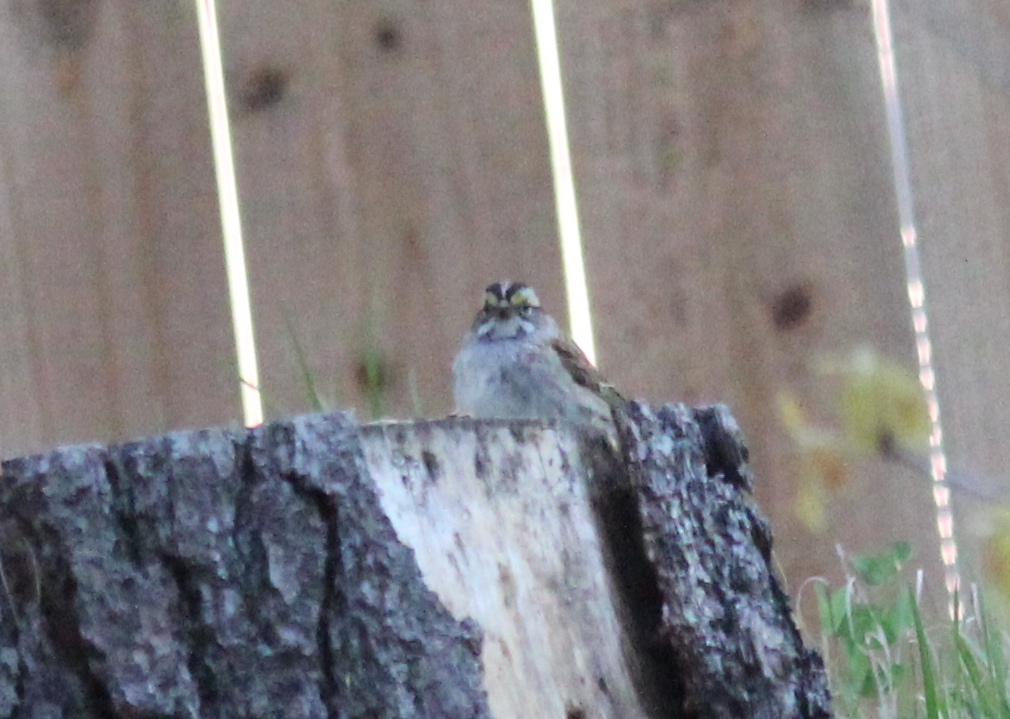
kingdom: Animalia
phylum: Chordata
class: Aves
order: Passeriformes
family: Passerellidae
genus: Zonotrichia
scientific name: Zonotrichia albicollis
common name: White-throated sparrow
